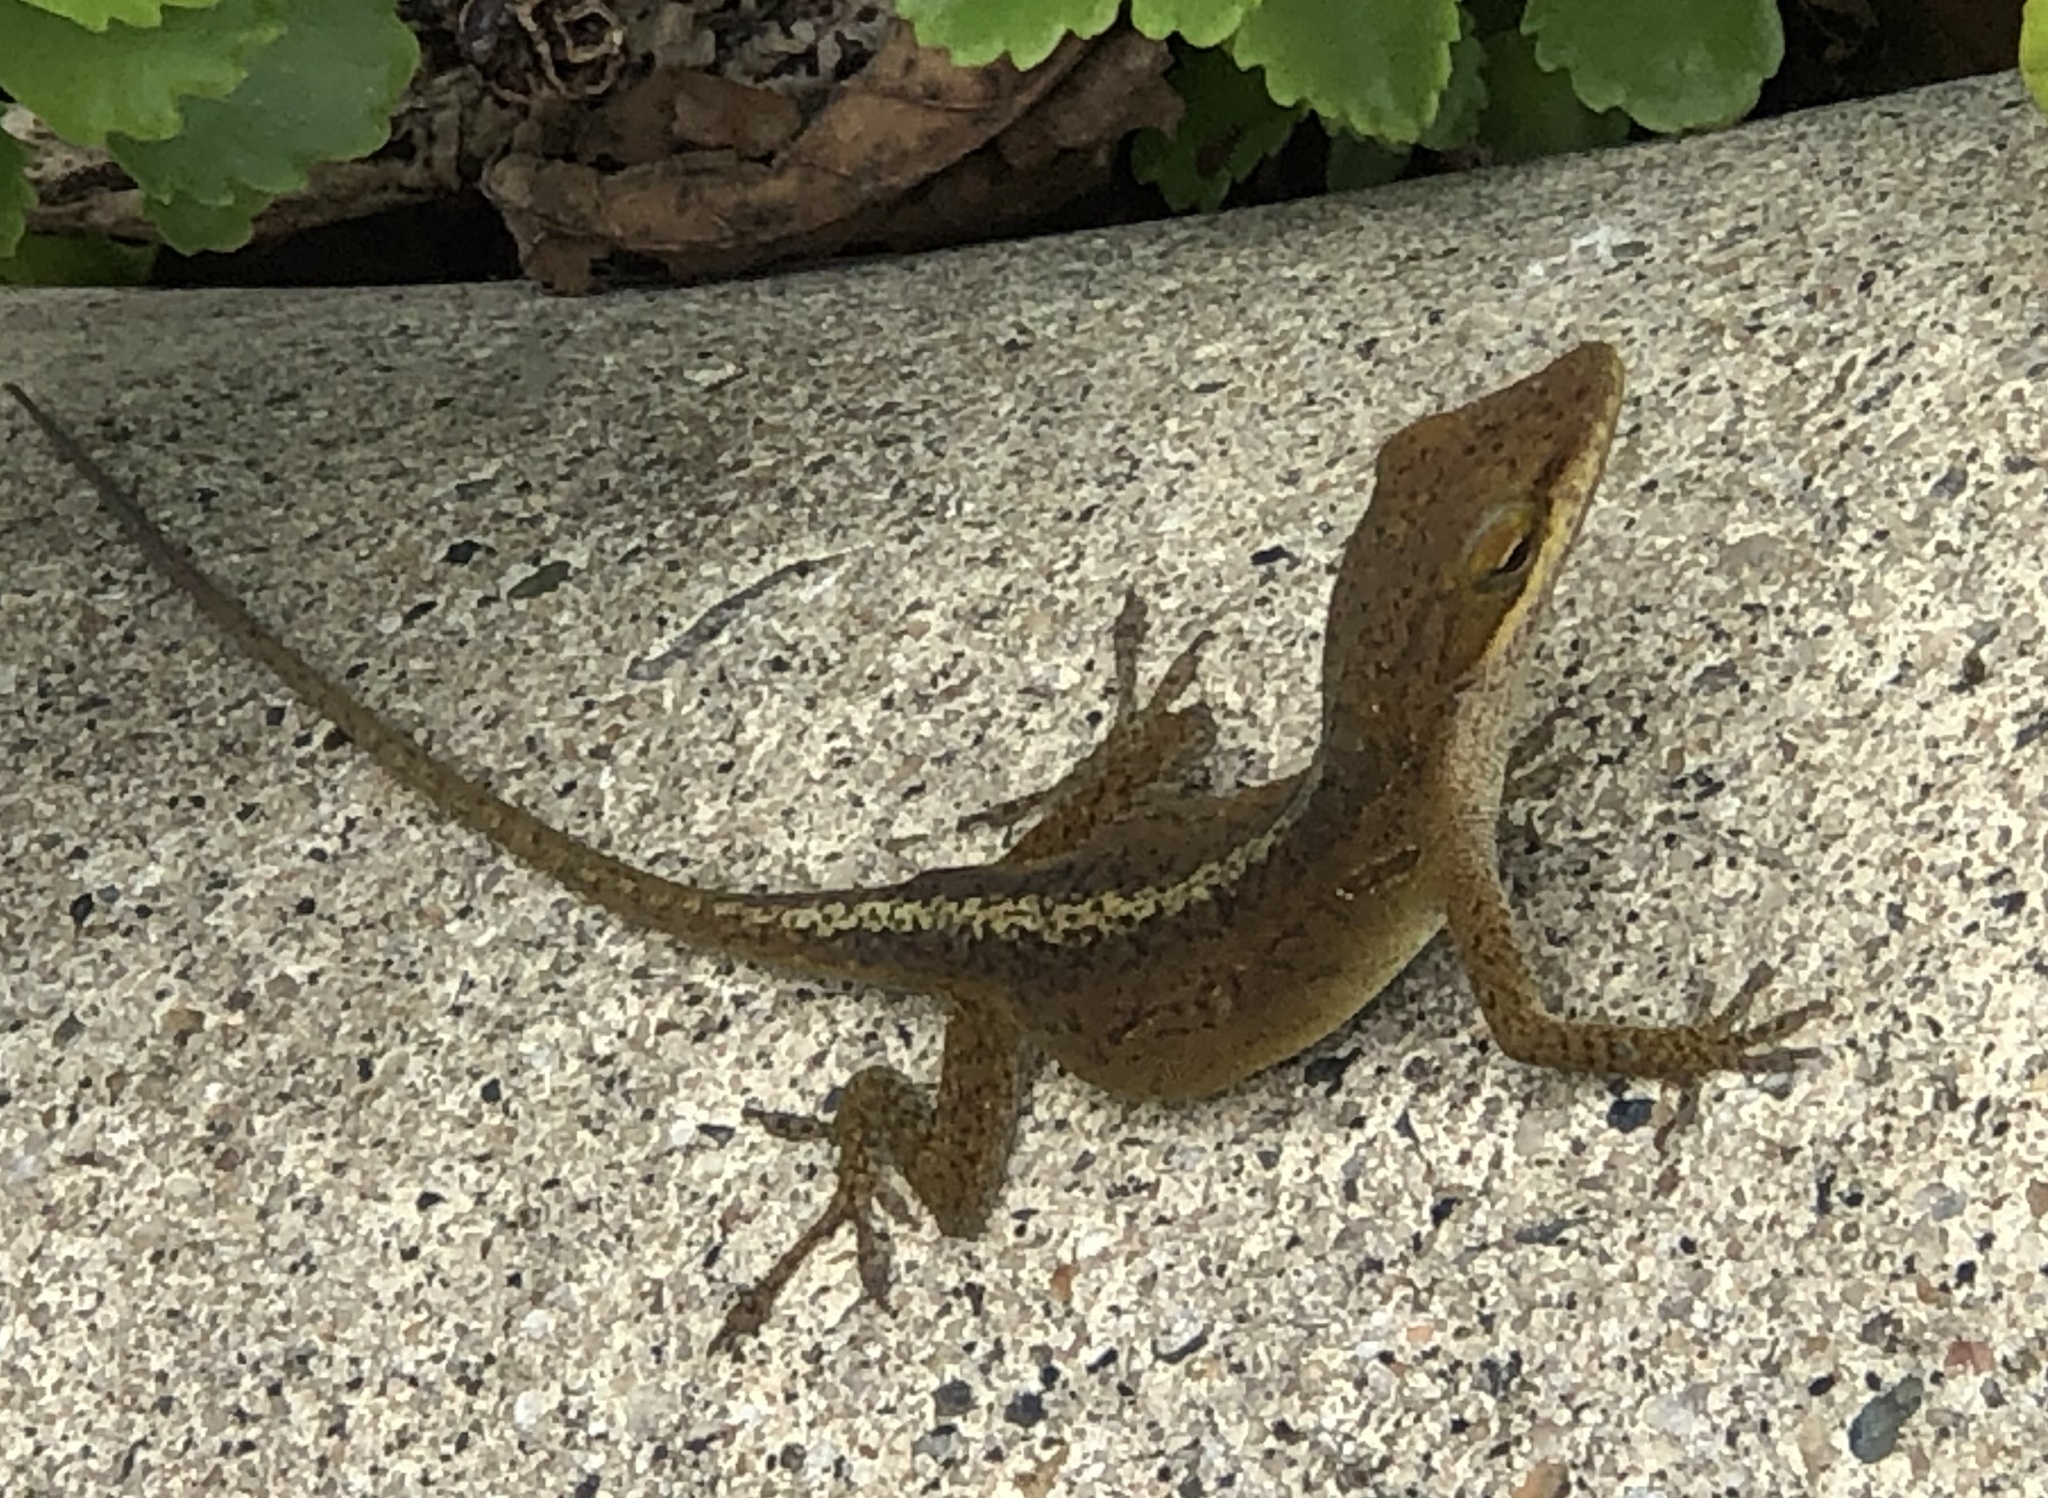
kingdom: Animalia
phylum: Chordata
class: Squamata
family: Dactyloidae
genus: Anolis
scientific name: Anolis carolinensis
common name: Green anole
